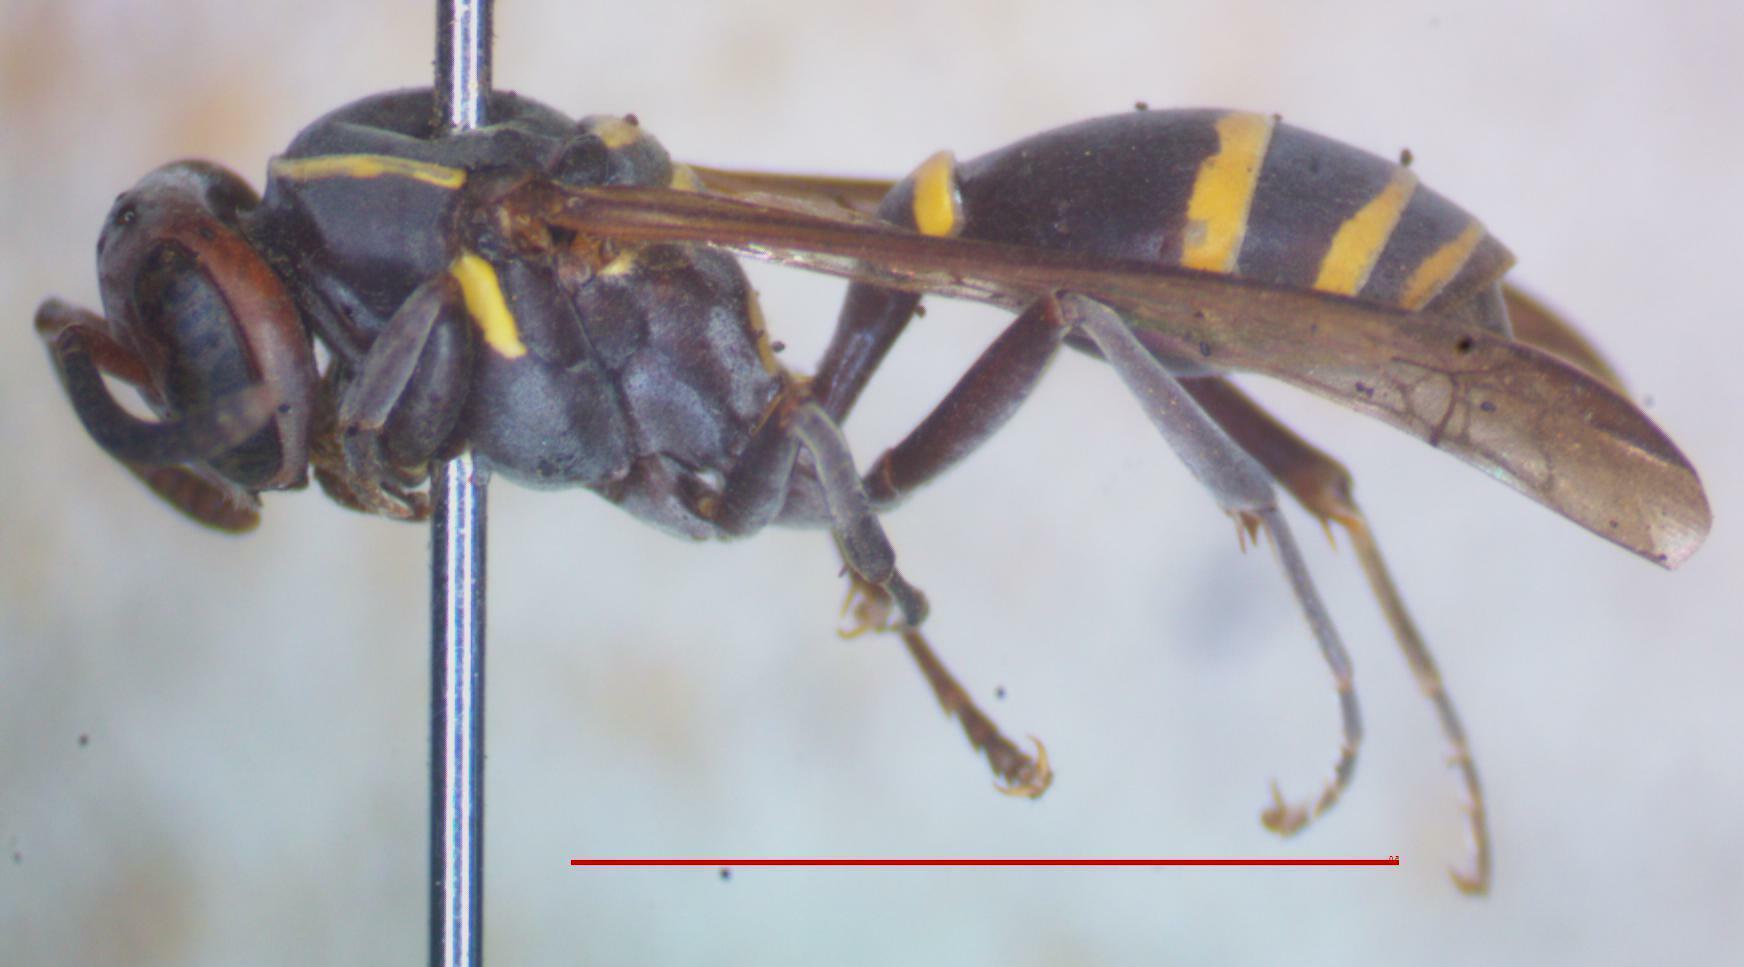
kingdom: Animalia
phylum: Arthropoda
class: Insecta
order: Hymenoptera
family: Eumenidae
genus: Polybia
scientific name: Polybia ruficeps
